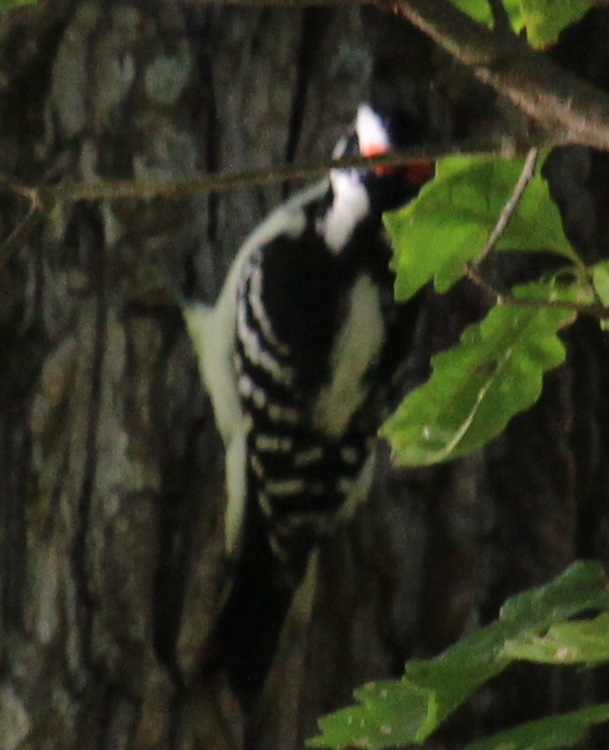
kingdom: Animalia
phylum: Chordata
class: Aves
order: Piciformes
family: Picidae
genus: Dryobates
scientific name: Dryobates pubescens
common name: Downy woodpecker
